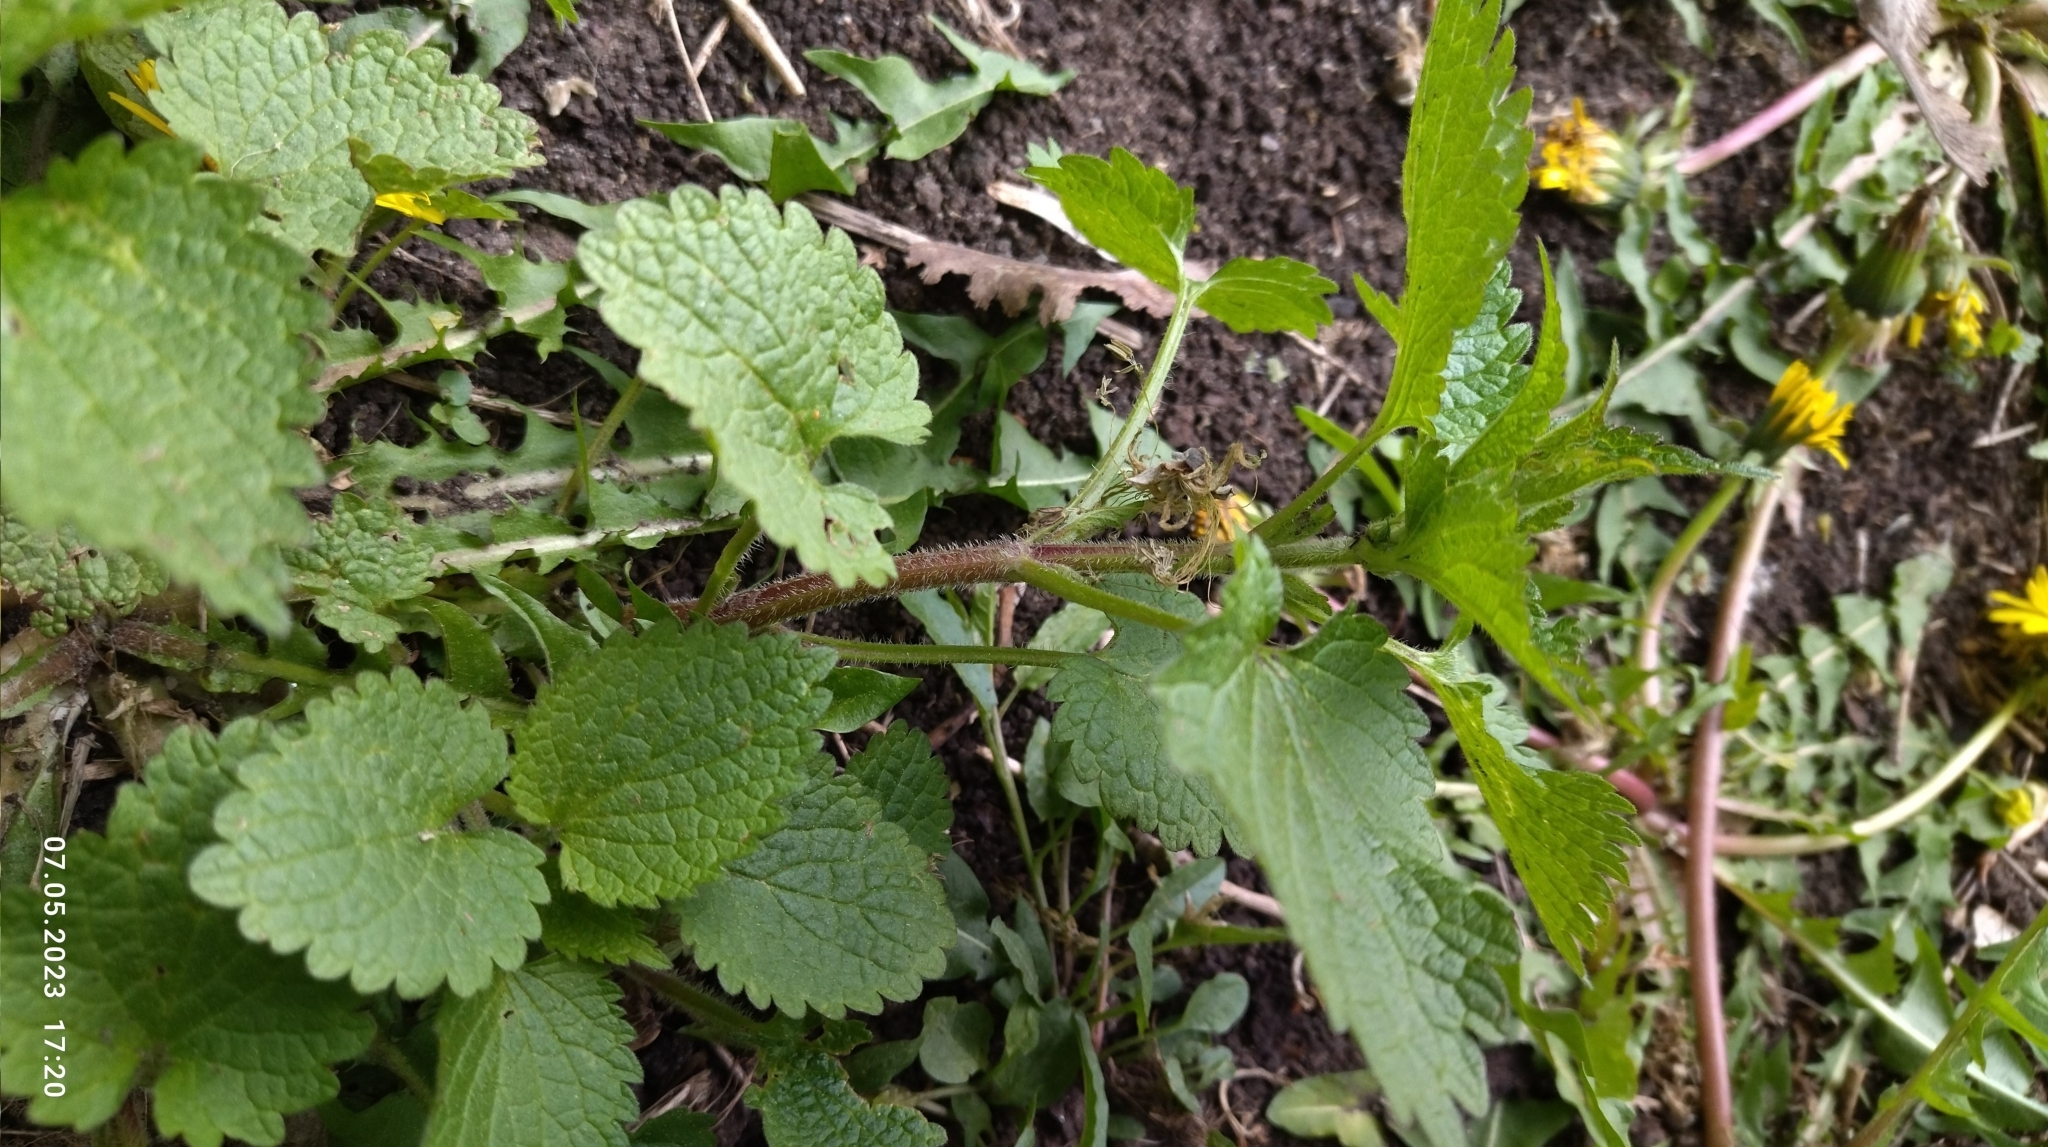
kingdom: Plantae
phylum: Tracheophyta
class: Magnoliopsida
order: Lamiales
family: Lamiaceae
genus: Lamium
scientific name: Lamium album
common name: White dead-nettle
